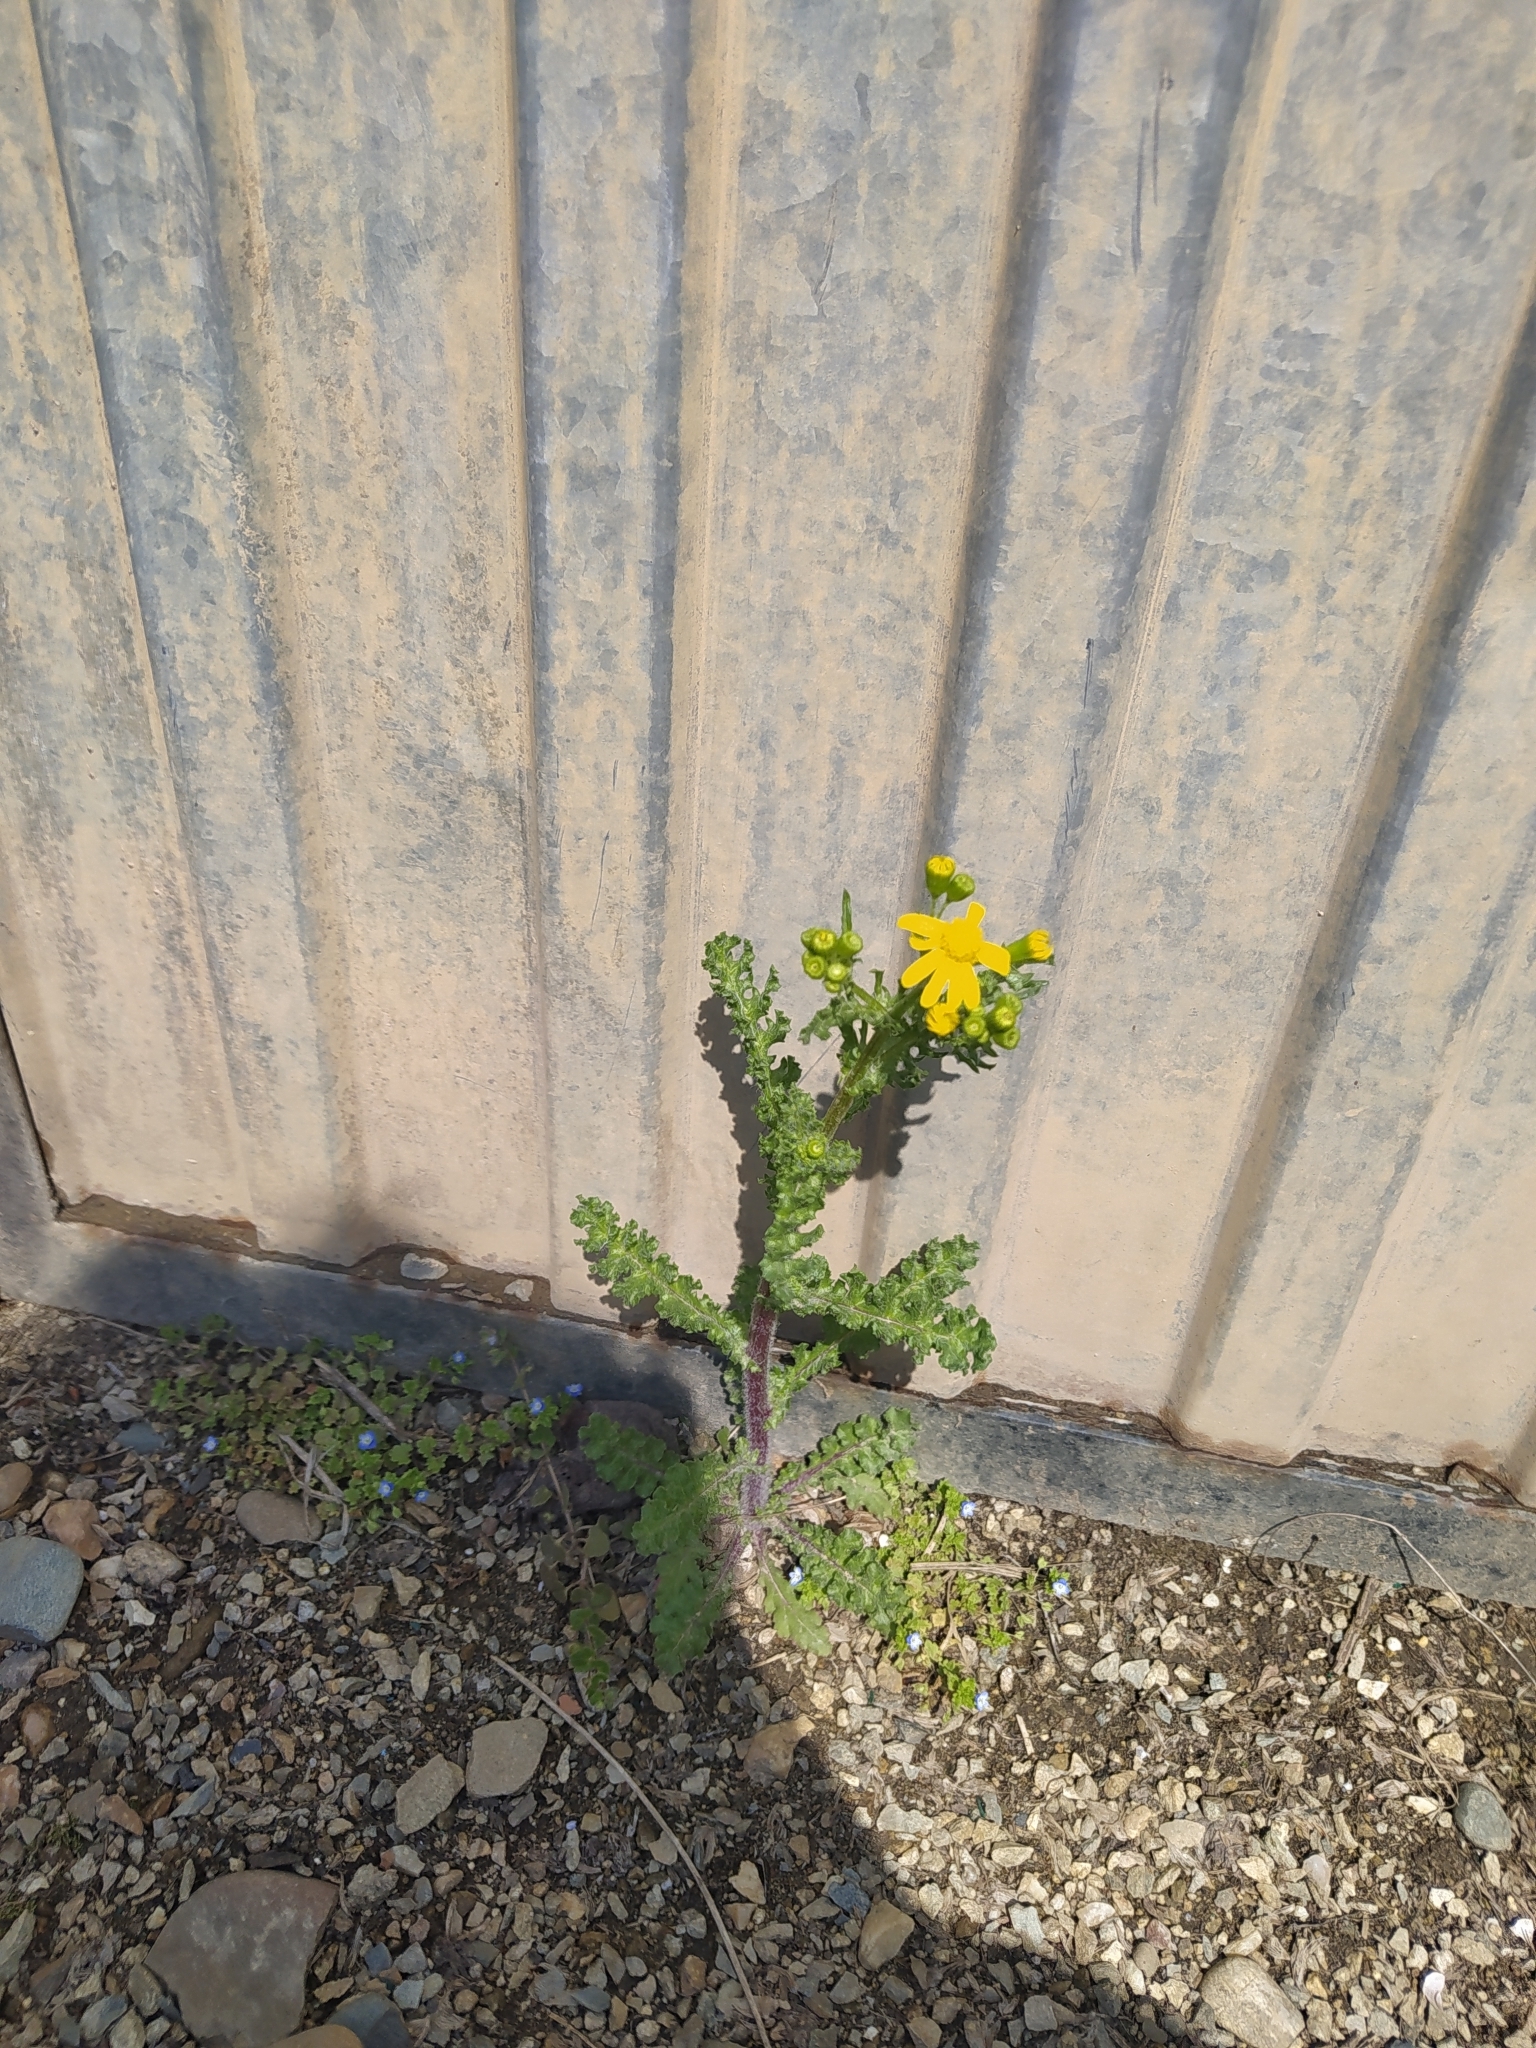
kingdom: Plantae
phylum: Tracheophyta
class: Magnoliopsida
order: Asterales
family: Asteraceae
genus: Senecio
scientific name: Senecio vernalis
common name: Eastern groundsel
